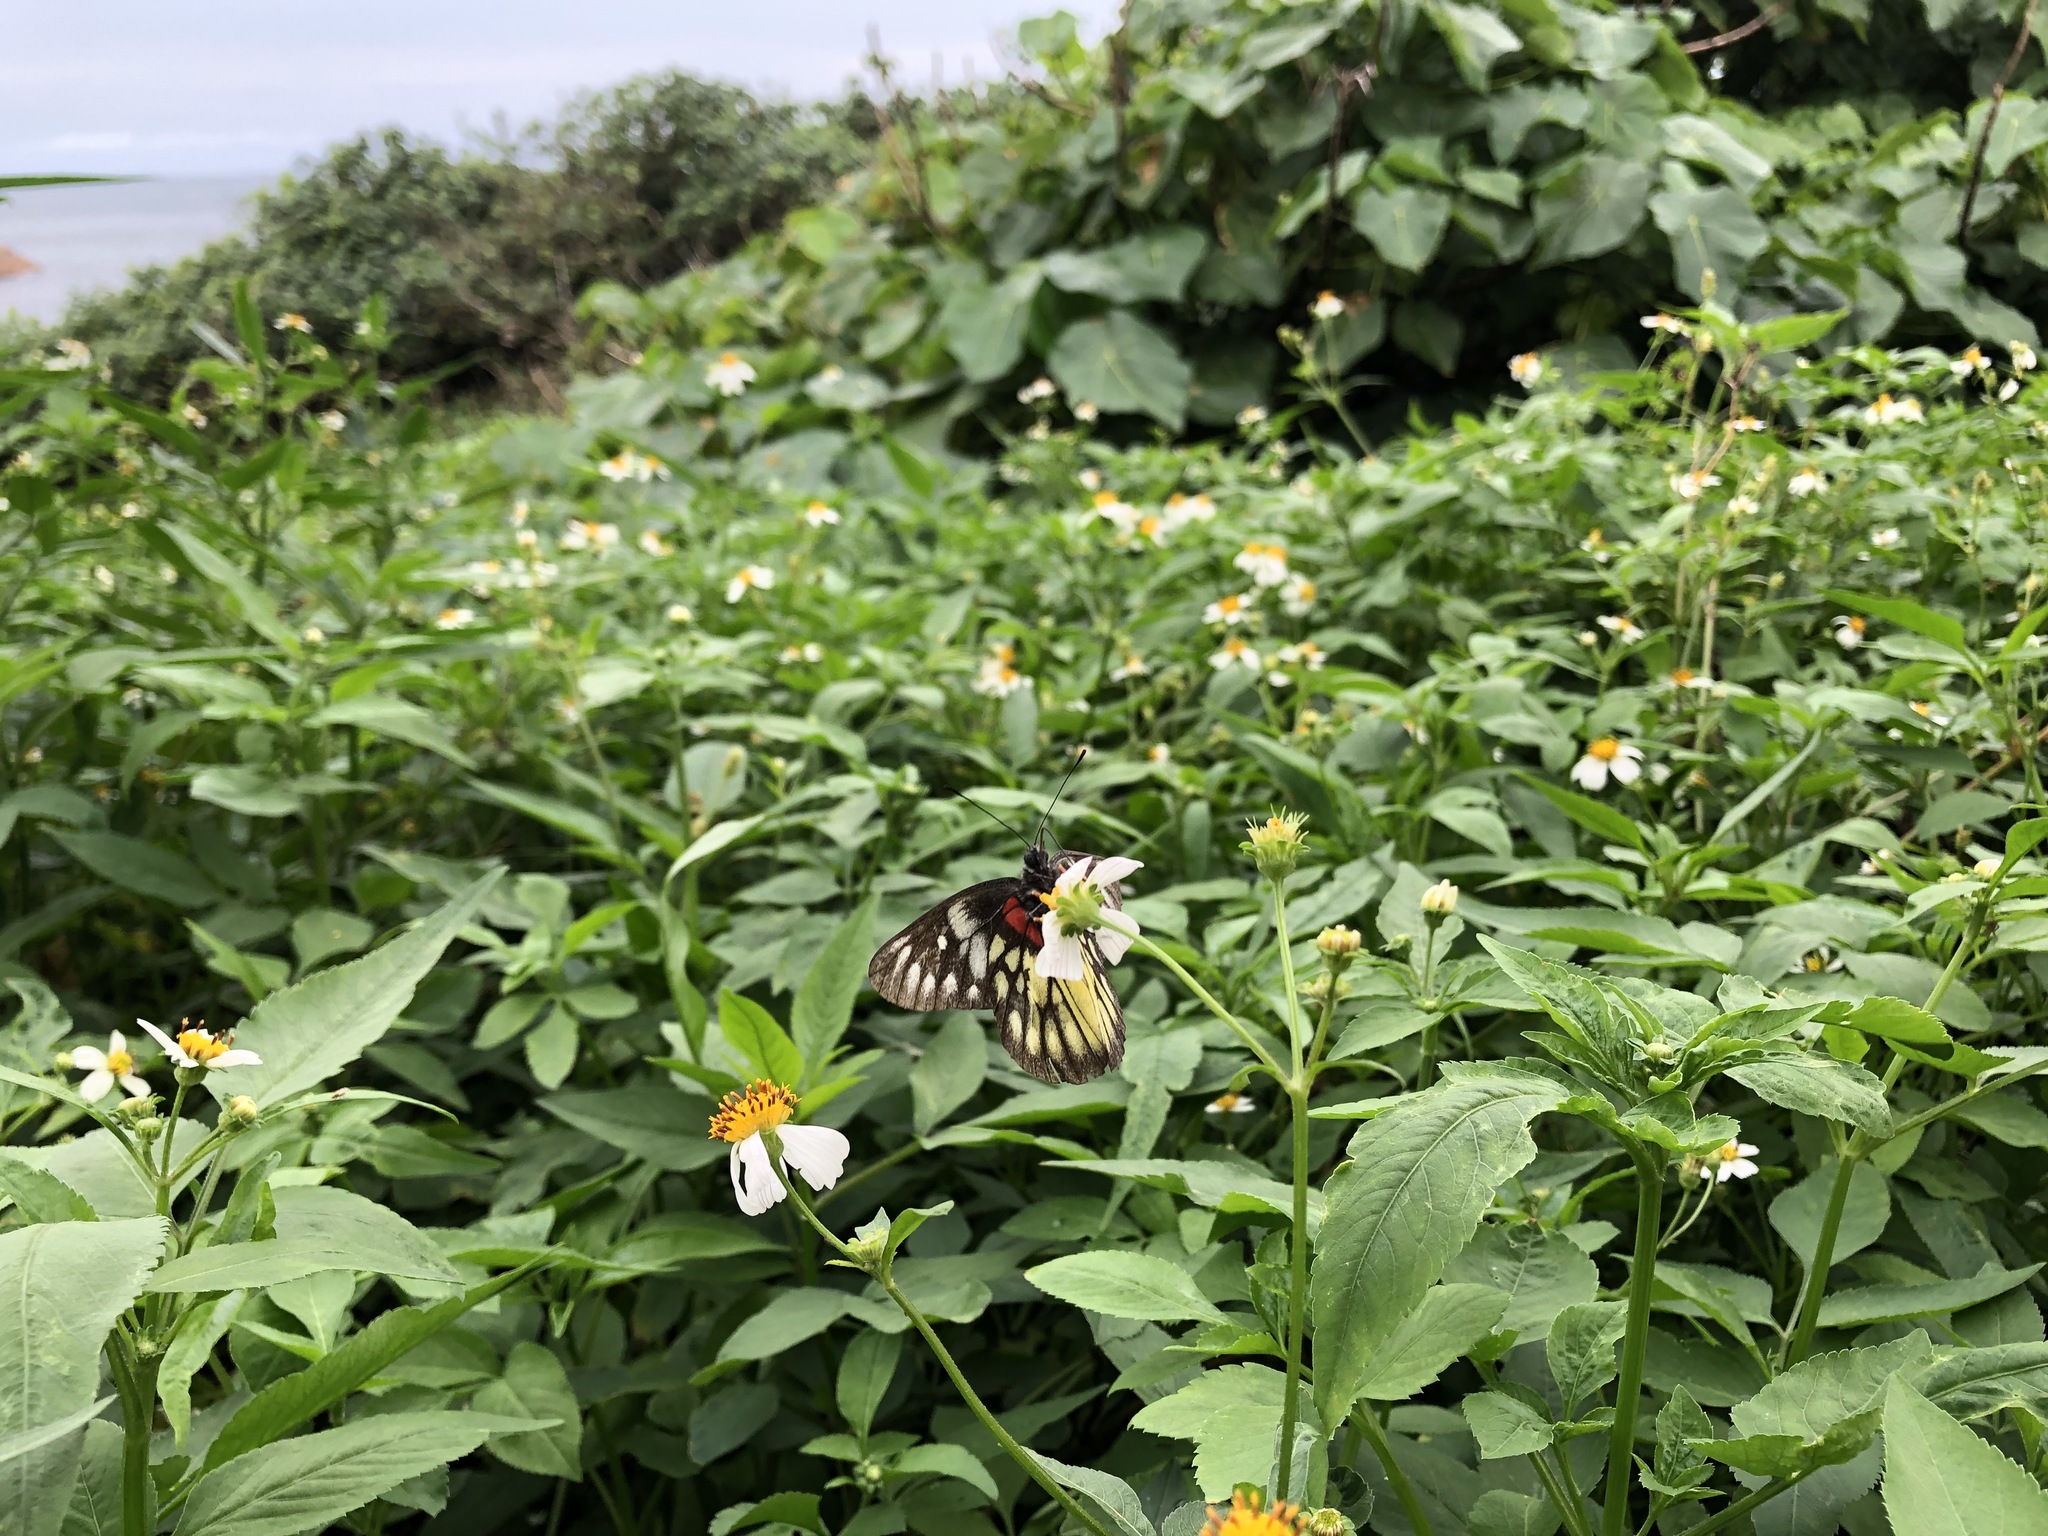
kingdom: Animalia
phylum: Arthropoda
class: Insecta
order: Lepidoptera
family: Pieridae
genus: Delias
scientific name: Delias pasithoe
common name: Red-base jezebel
